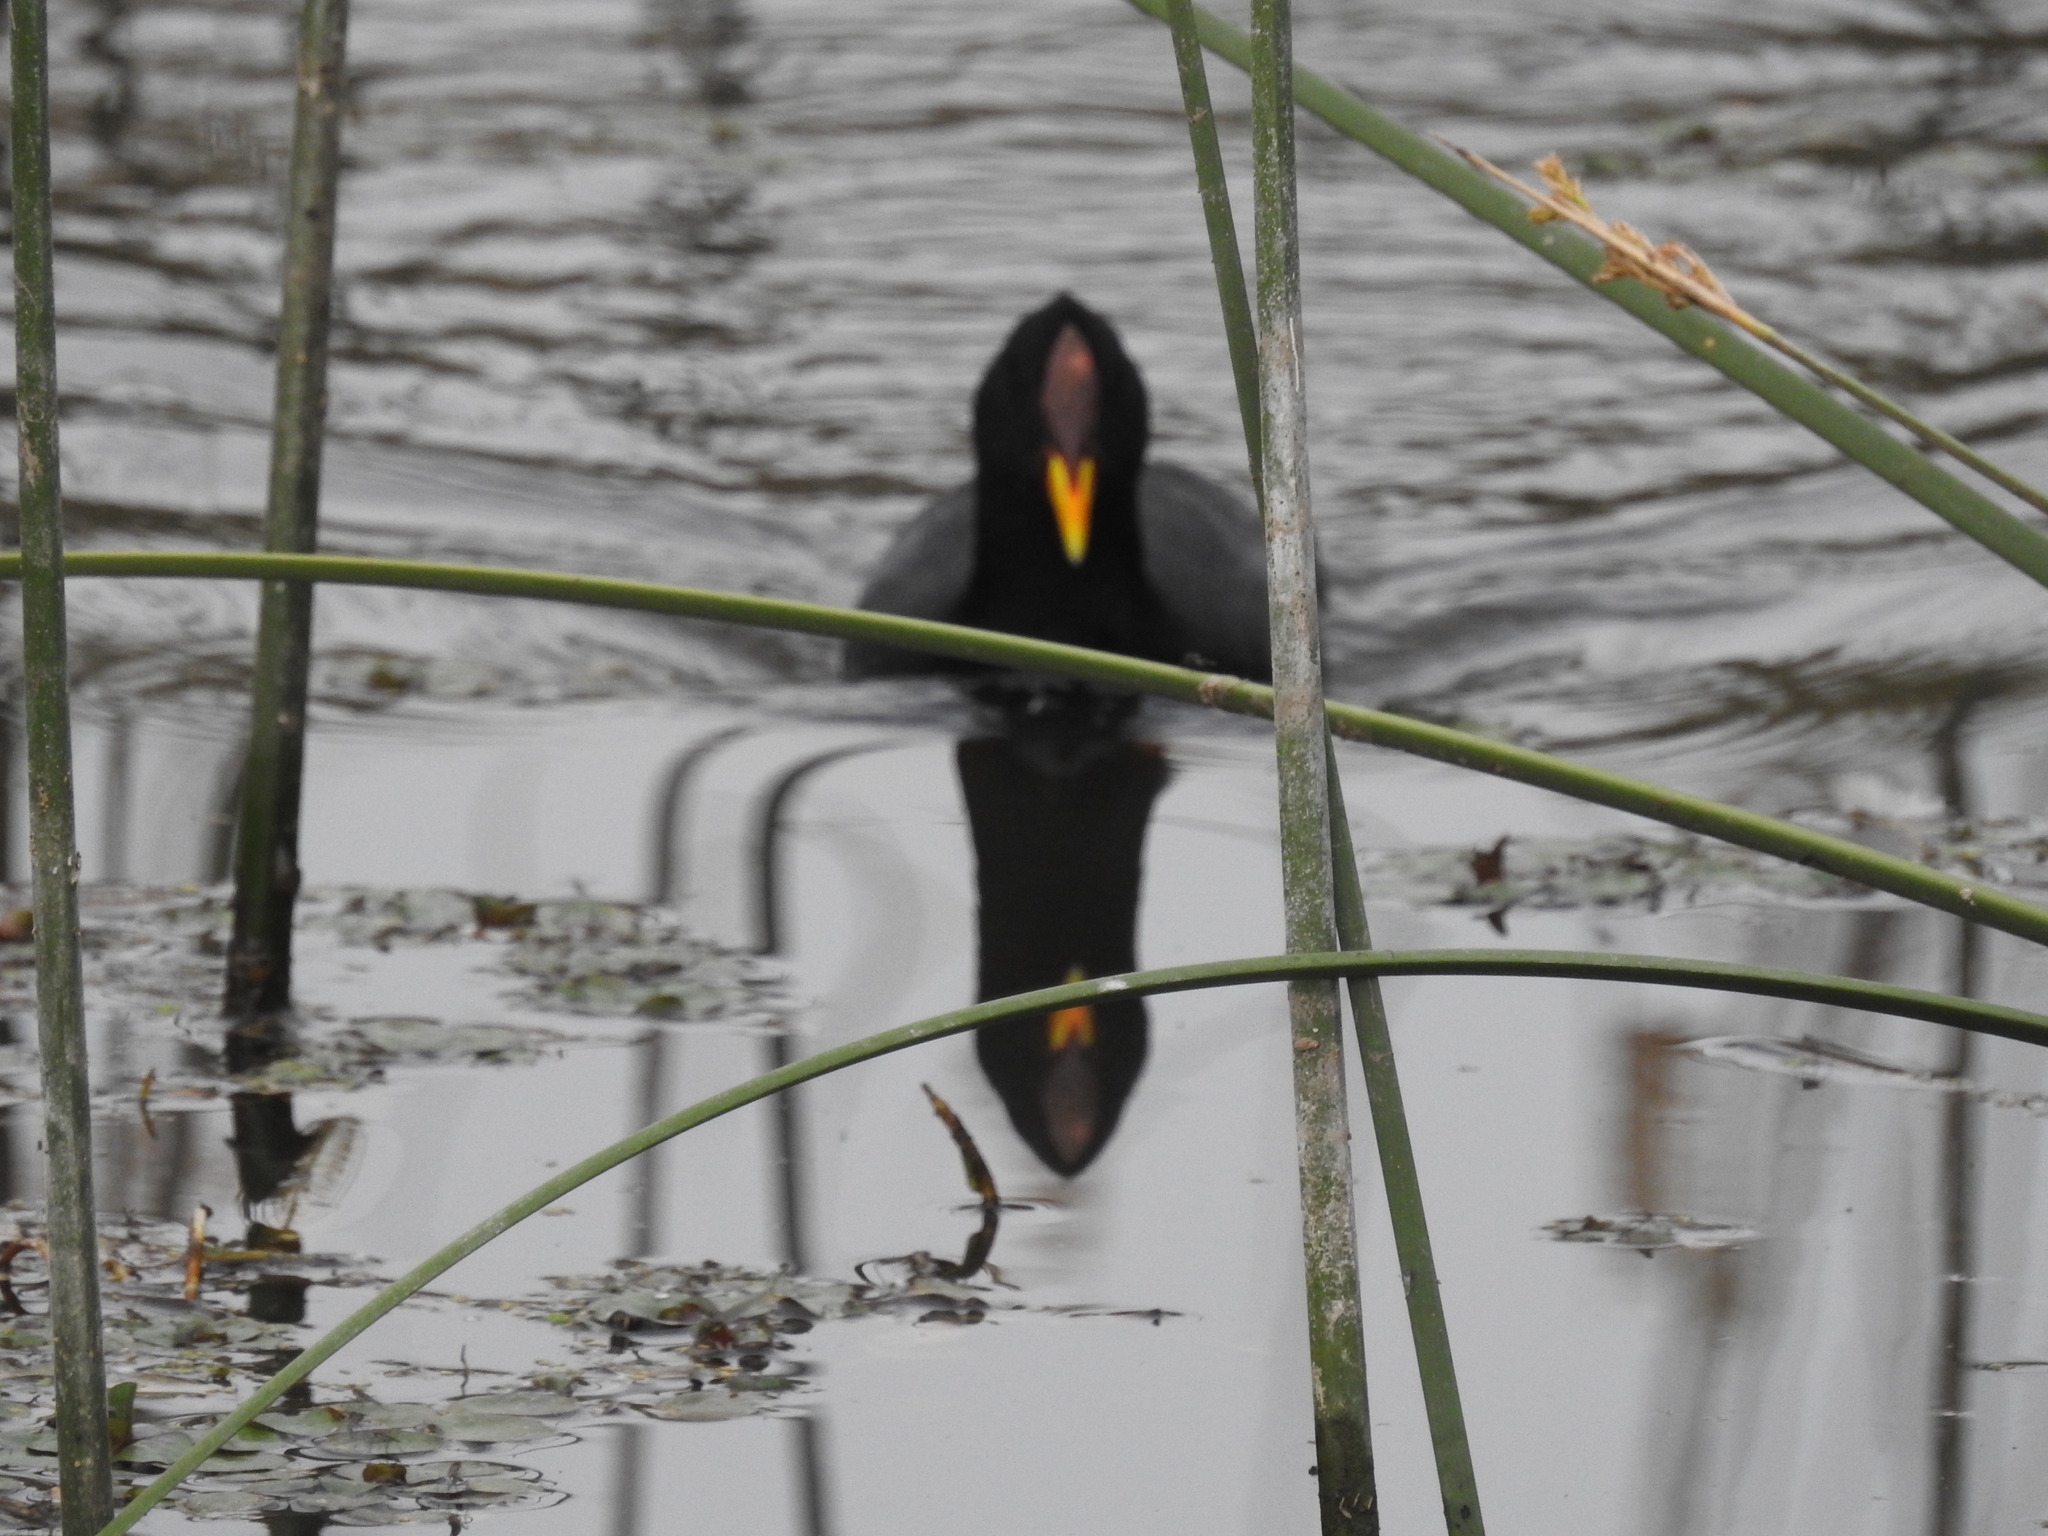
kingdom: Animalia
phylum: Chordata
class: Aves
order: Gruiformes
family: Rallidae
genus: Fulica
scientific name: Fulica rufifrons
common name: Red-fronted coot
